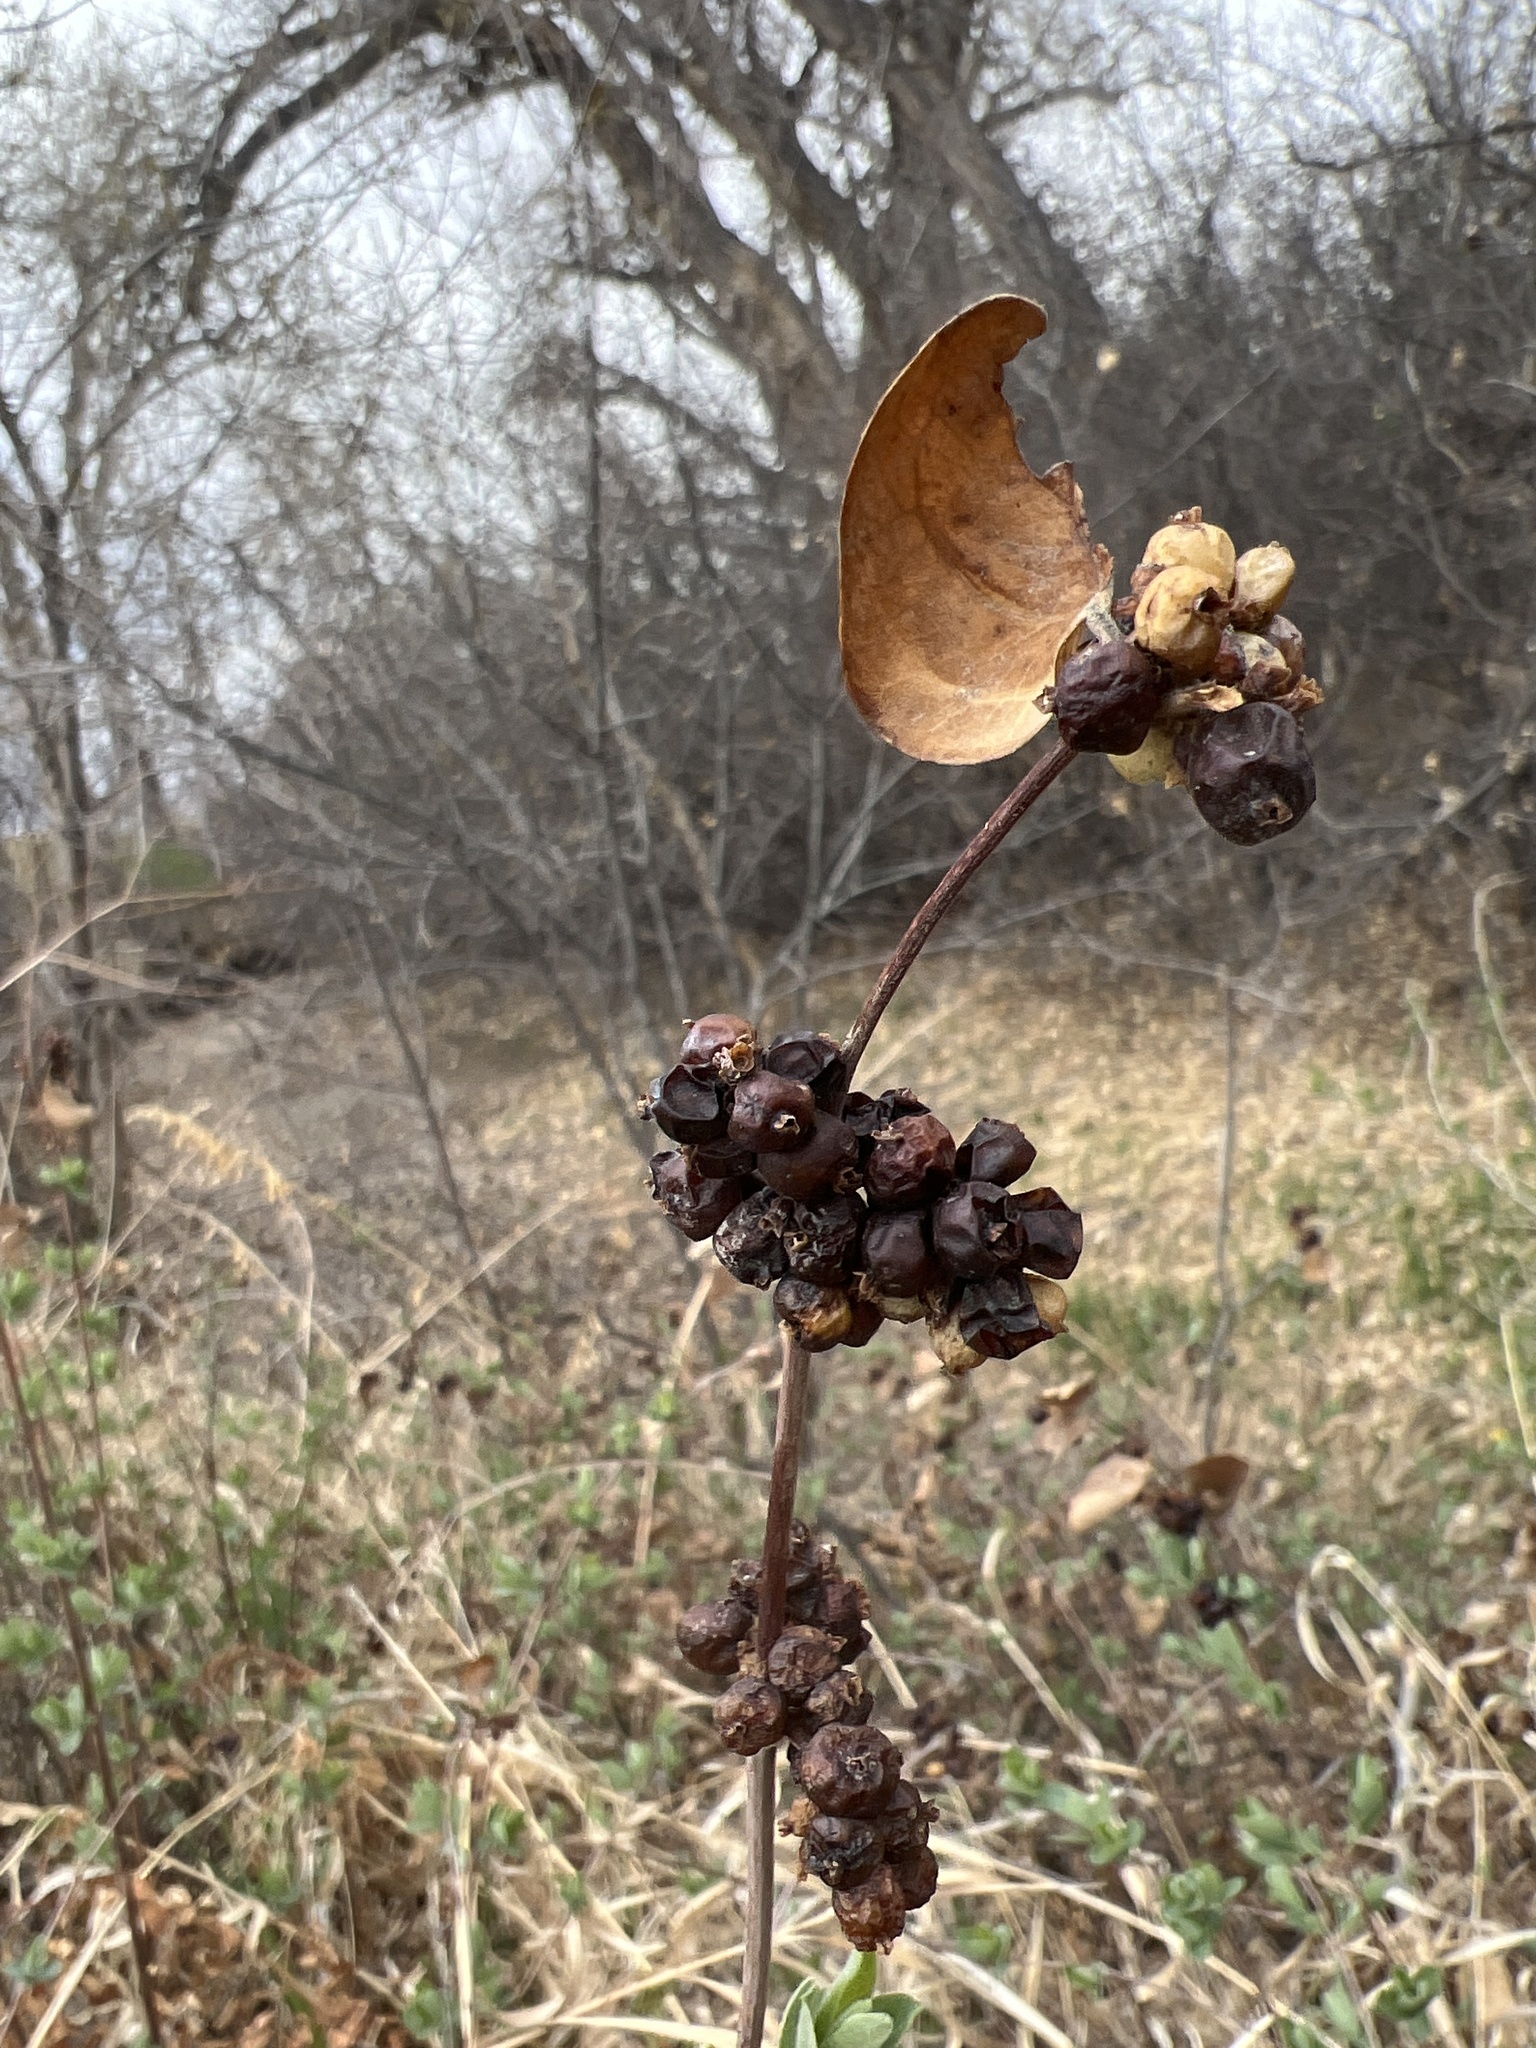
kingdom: Plantae
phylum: Tracheophyta
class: Magnoliopsida
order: Dipsacales
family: Caprifoliaceae
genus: Symphoricarpos
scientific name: Symphoricarpos occidentalis
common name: Wolfberry
